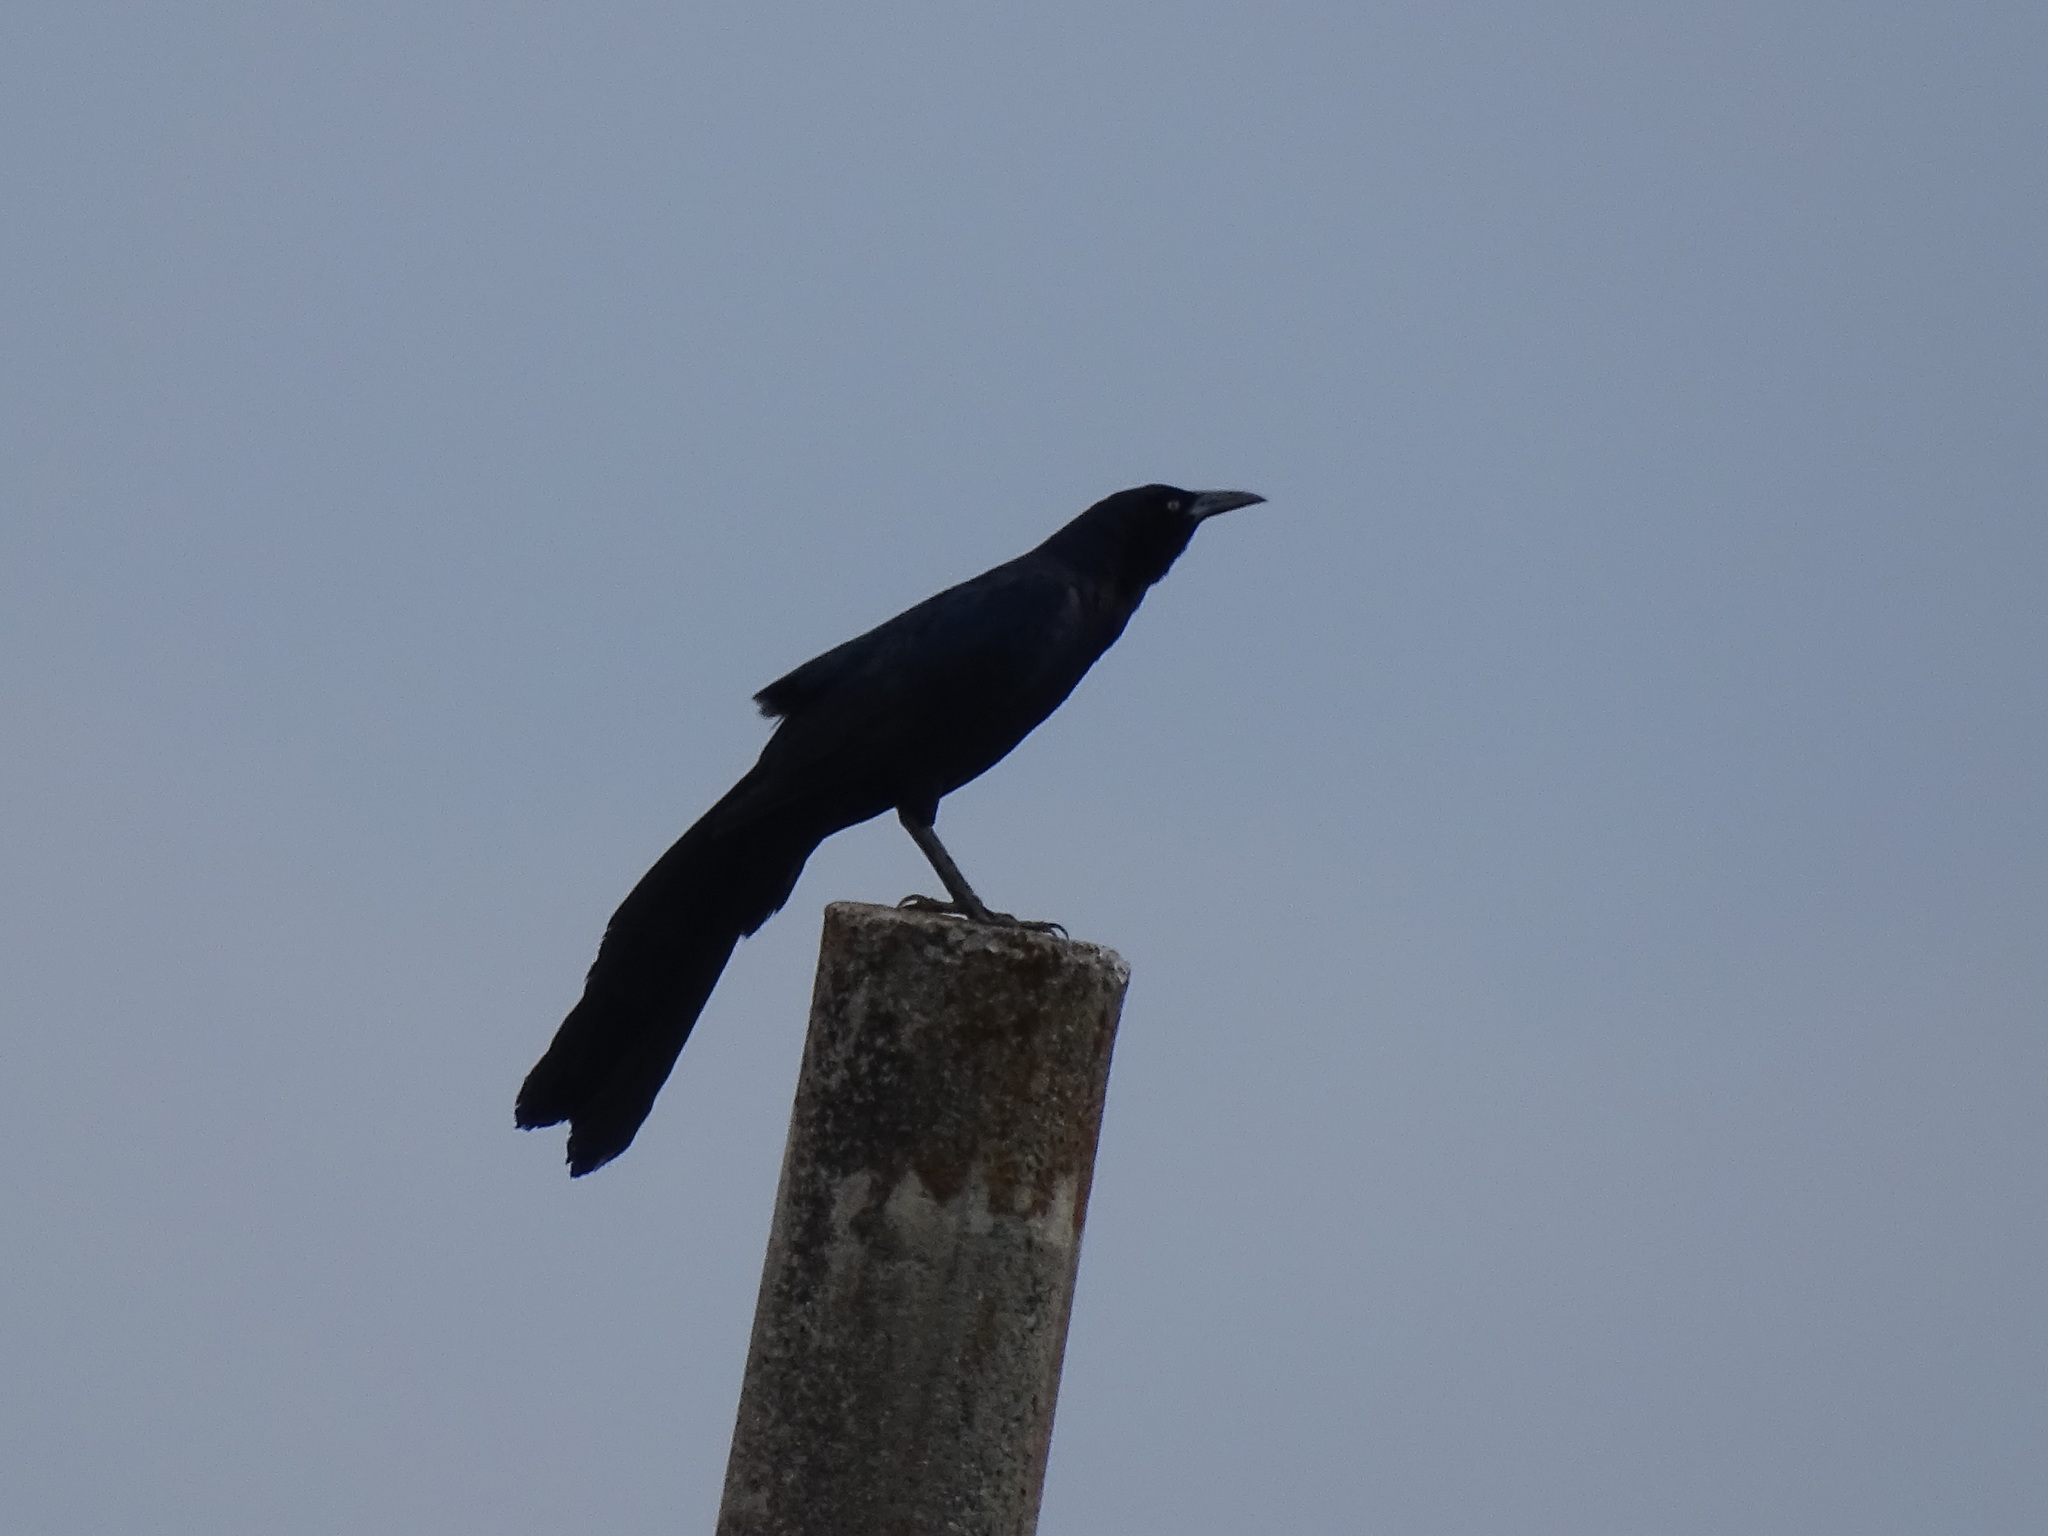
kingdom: Animalia
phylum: Chordata
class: Aves
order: Passeriformes
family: Icteridae
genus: Quiscalus
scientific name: Quiscalus mexicanus
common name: Great-tailed grackle
